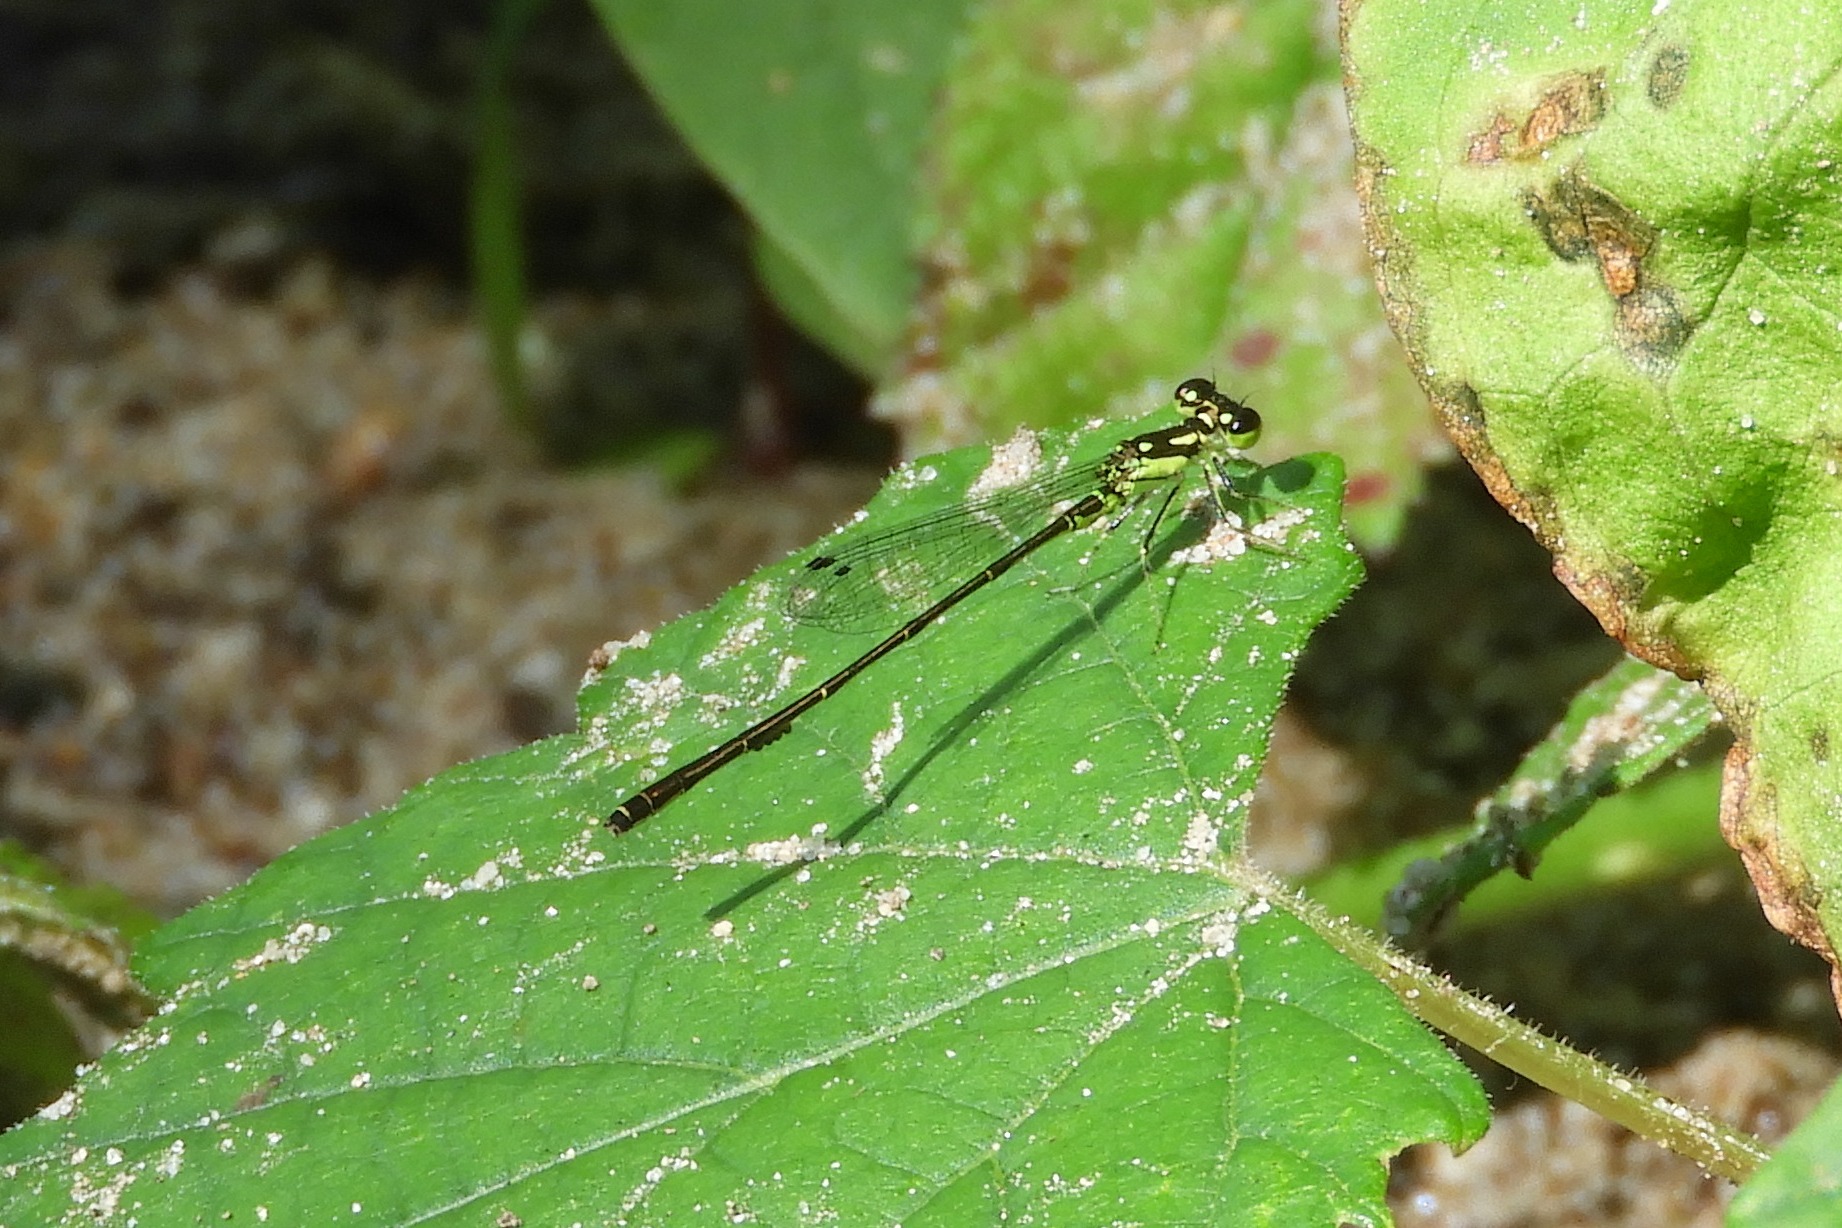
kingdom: Animalia
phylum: Arthropoda
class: Insecta
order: Odonata
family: Coenagrionidae
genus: Ischnura
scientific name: Ischnura posita
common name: Fragile forktail
